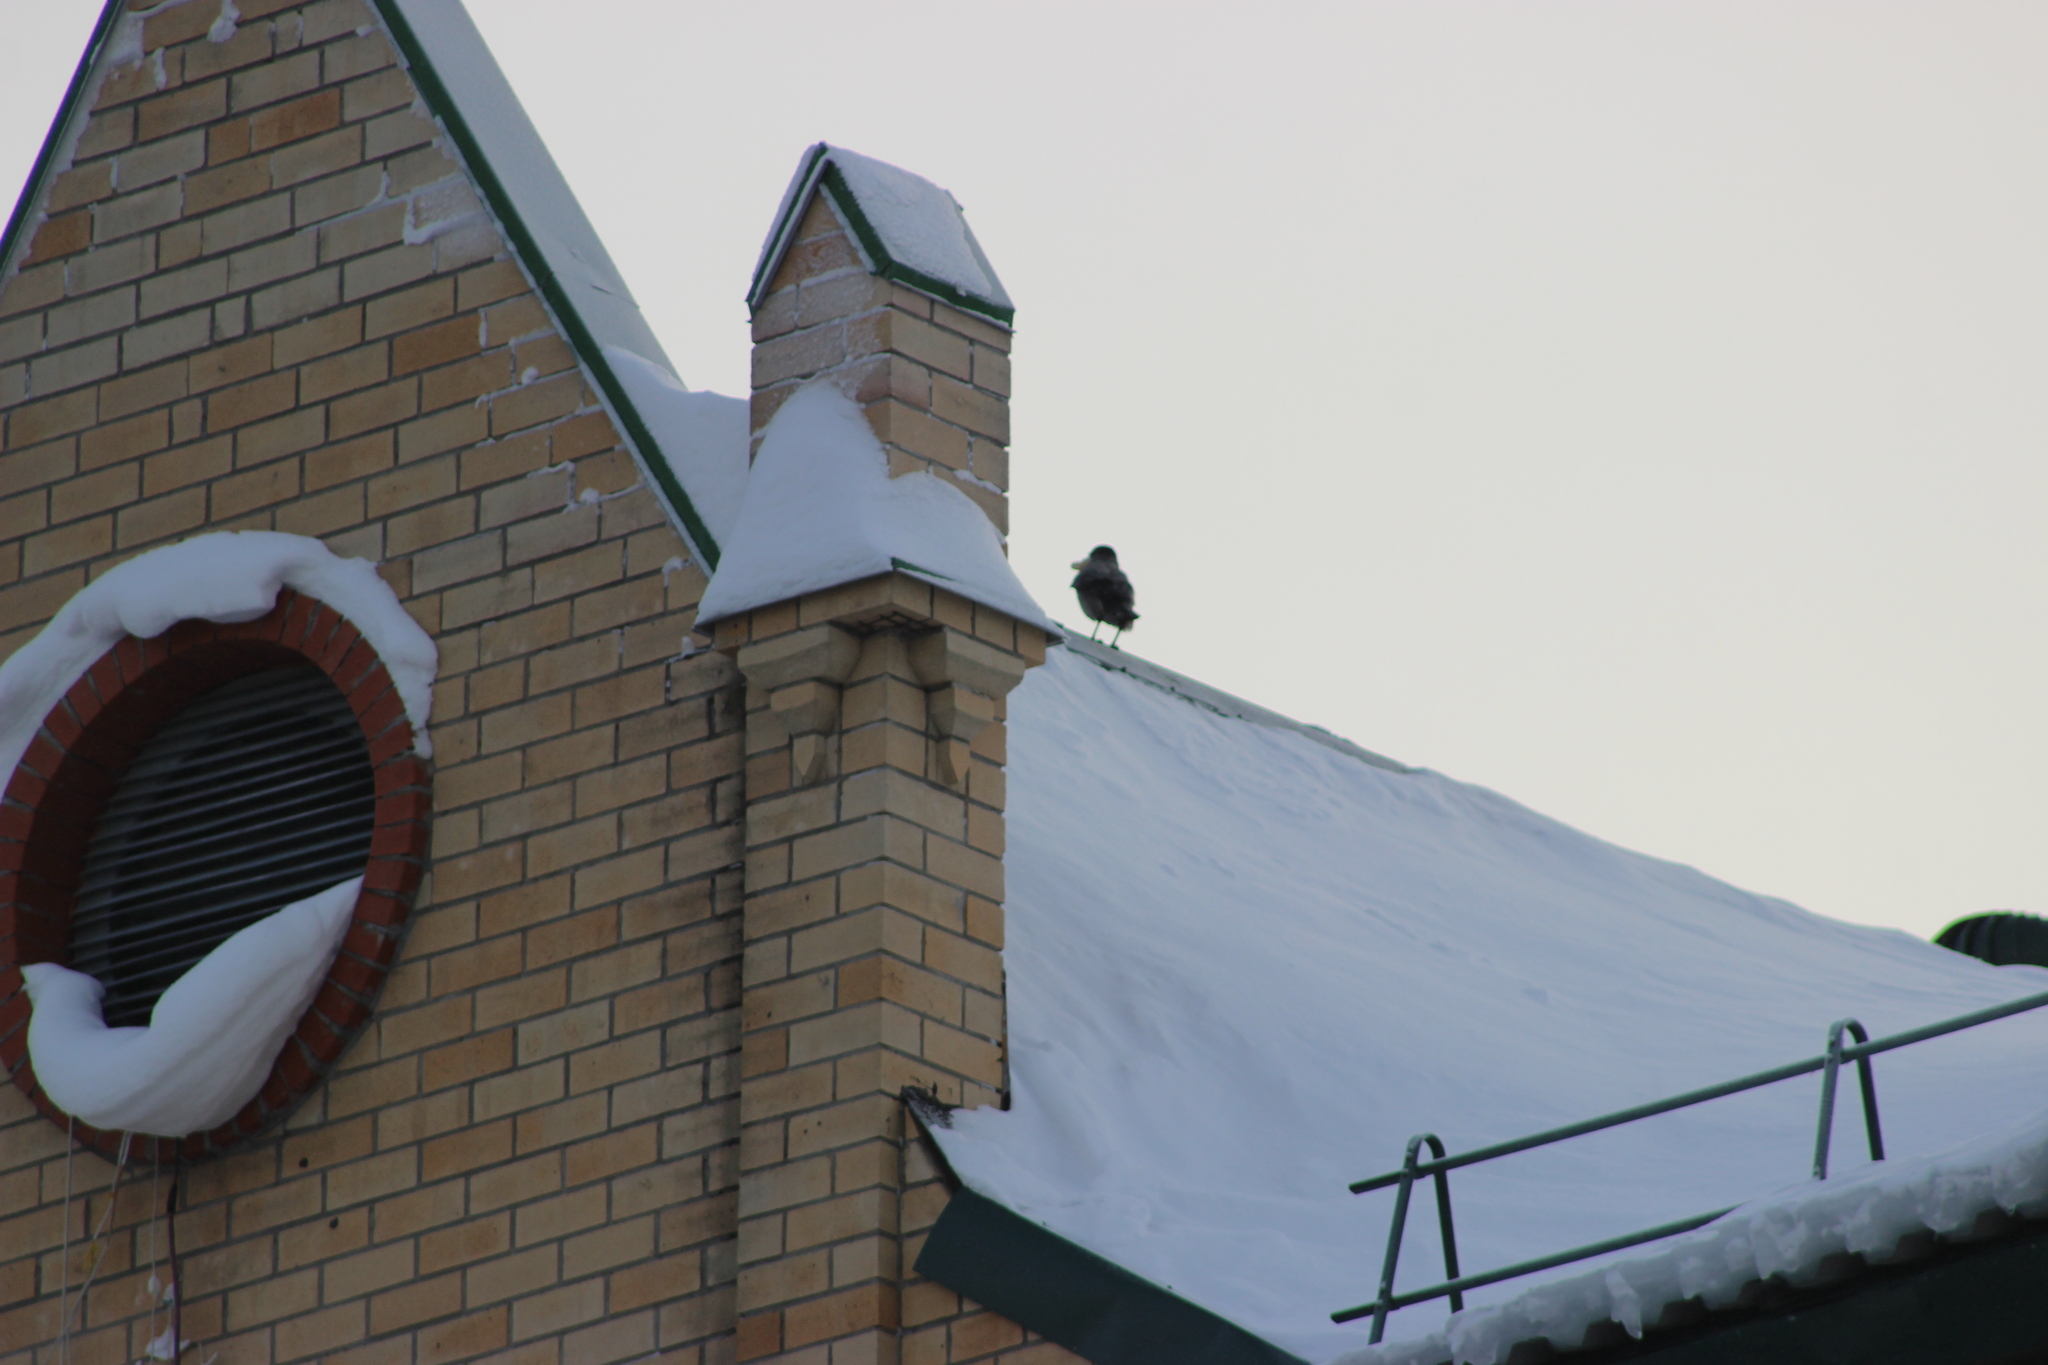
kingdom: Animalia
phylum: Chordata
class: Aves
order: Passeriformes
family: Corvidae
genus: Corvus
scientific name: Corvus cornix
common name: Hooded crow
